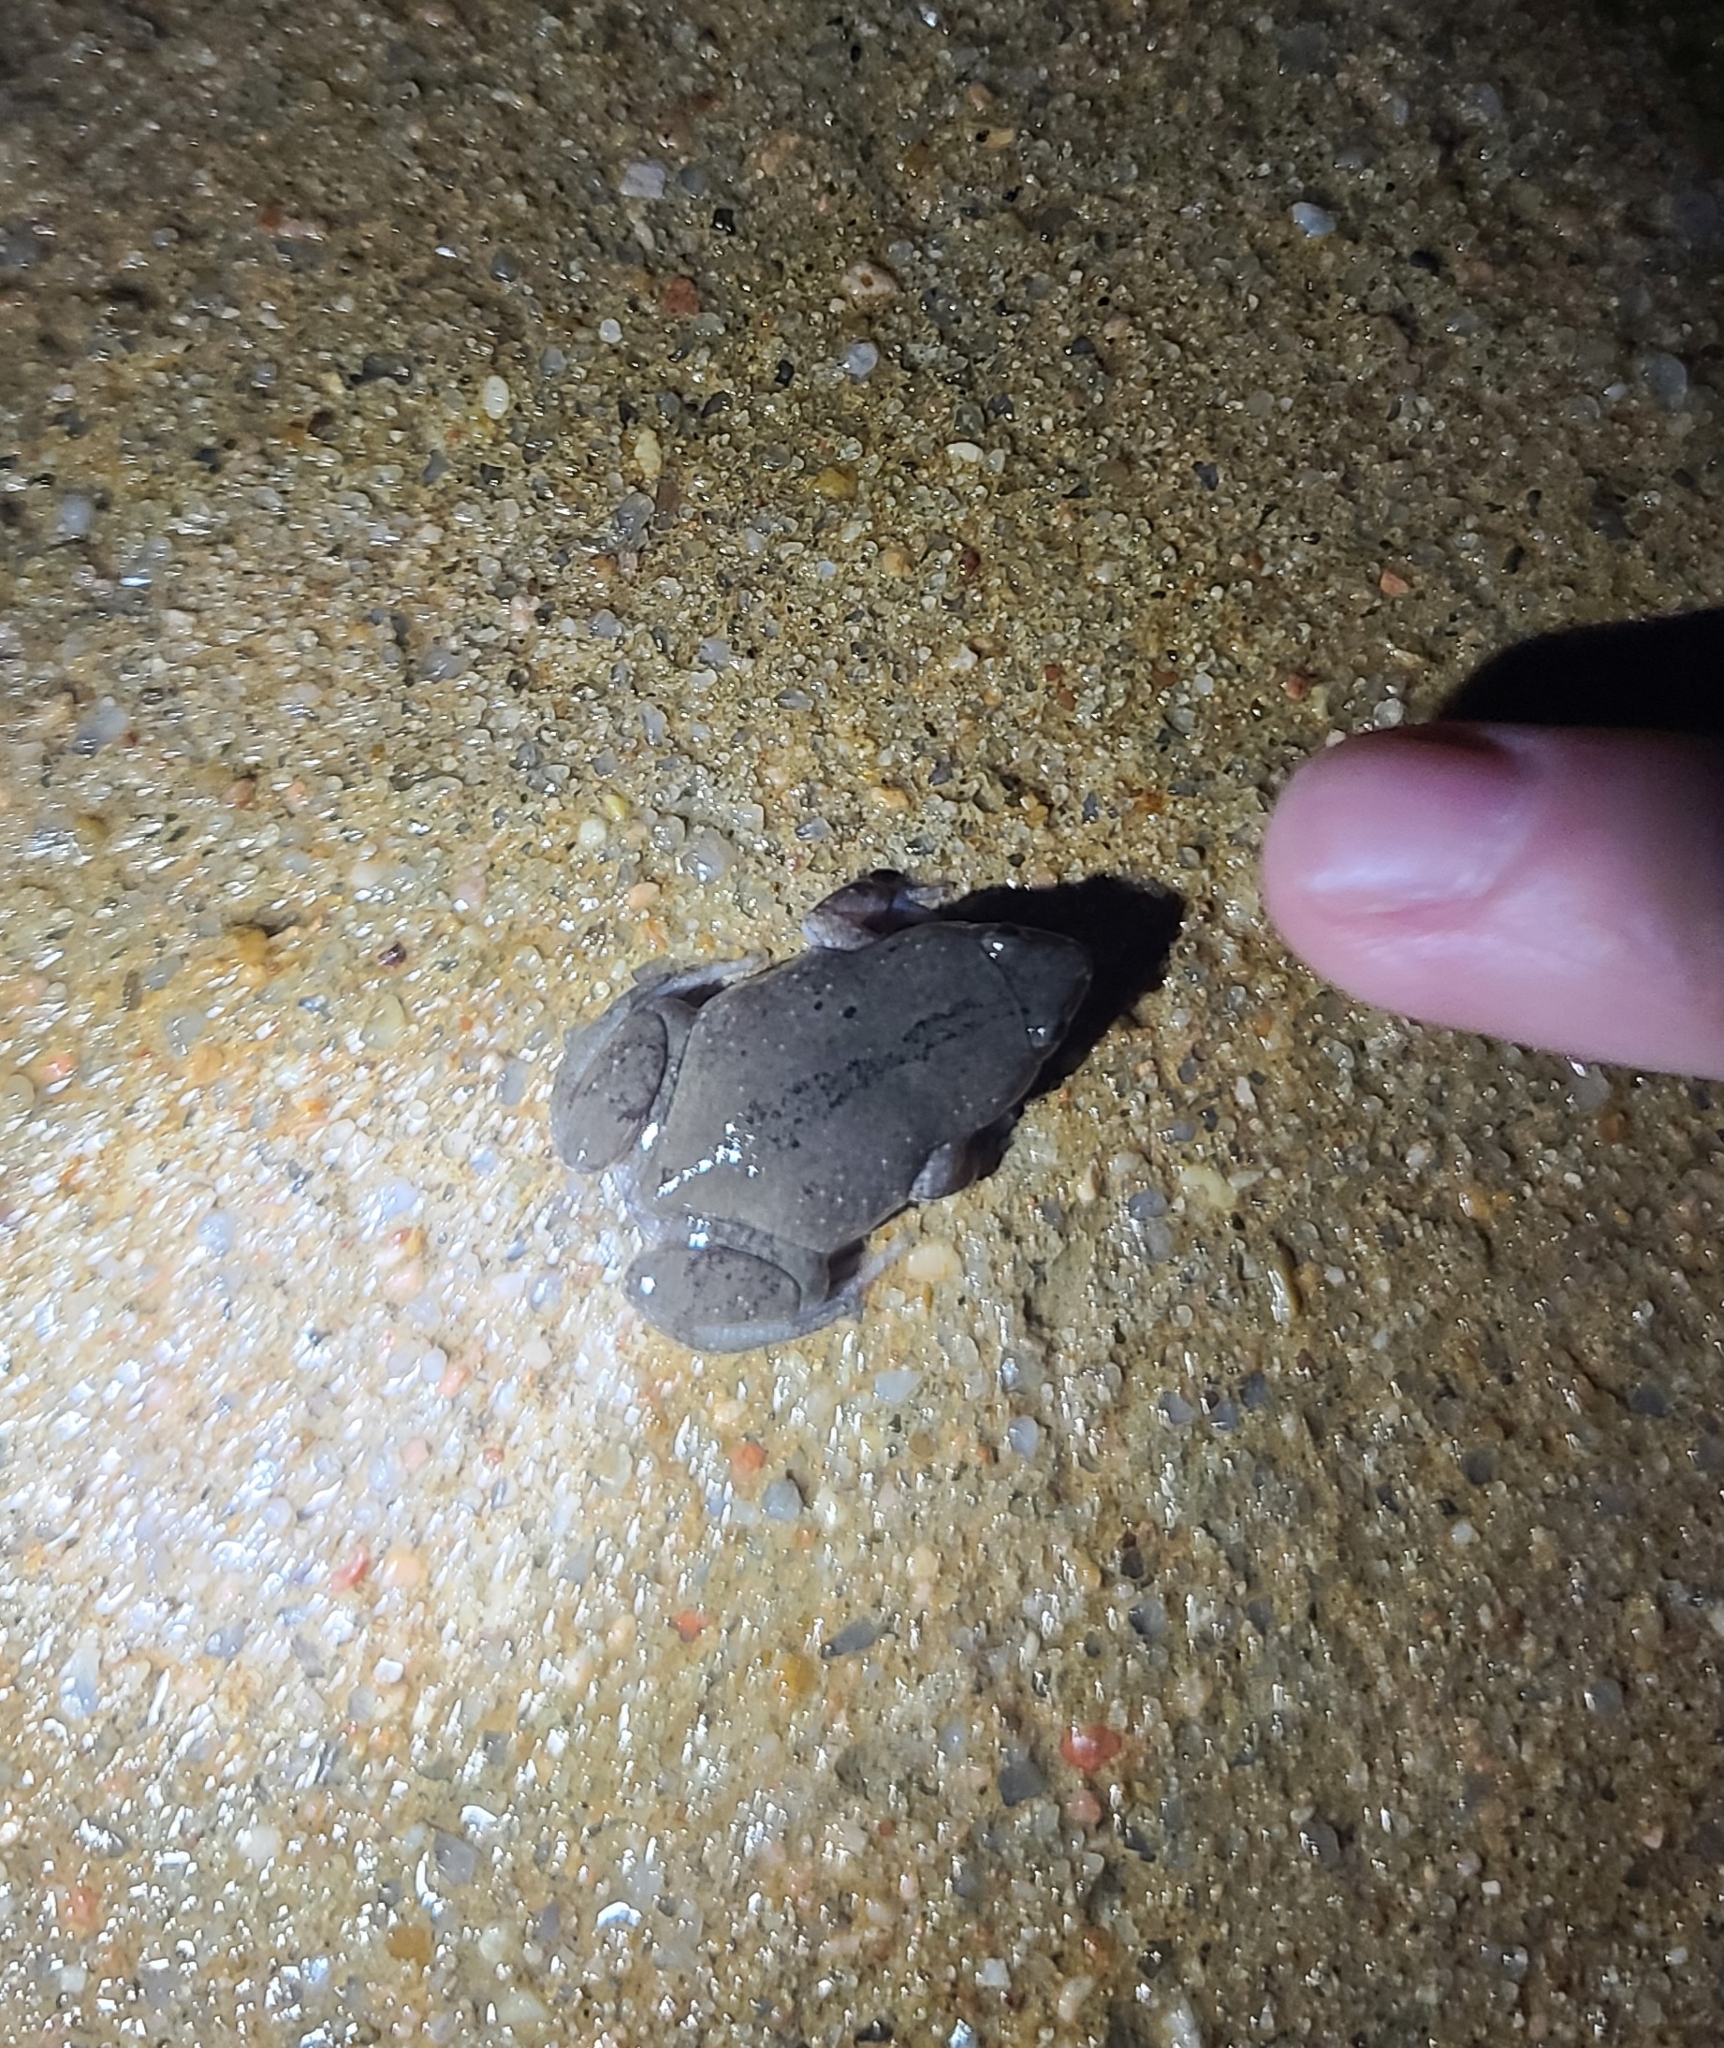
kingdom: Animalia
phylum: Chordata
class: Amphibia
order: Anura
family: Microhylidae
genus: Gastrophryne
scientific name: Gastrophryne olivacea
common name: Great plains narrow-mouthed toad
